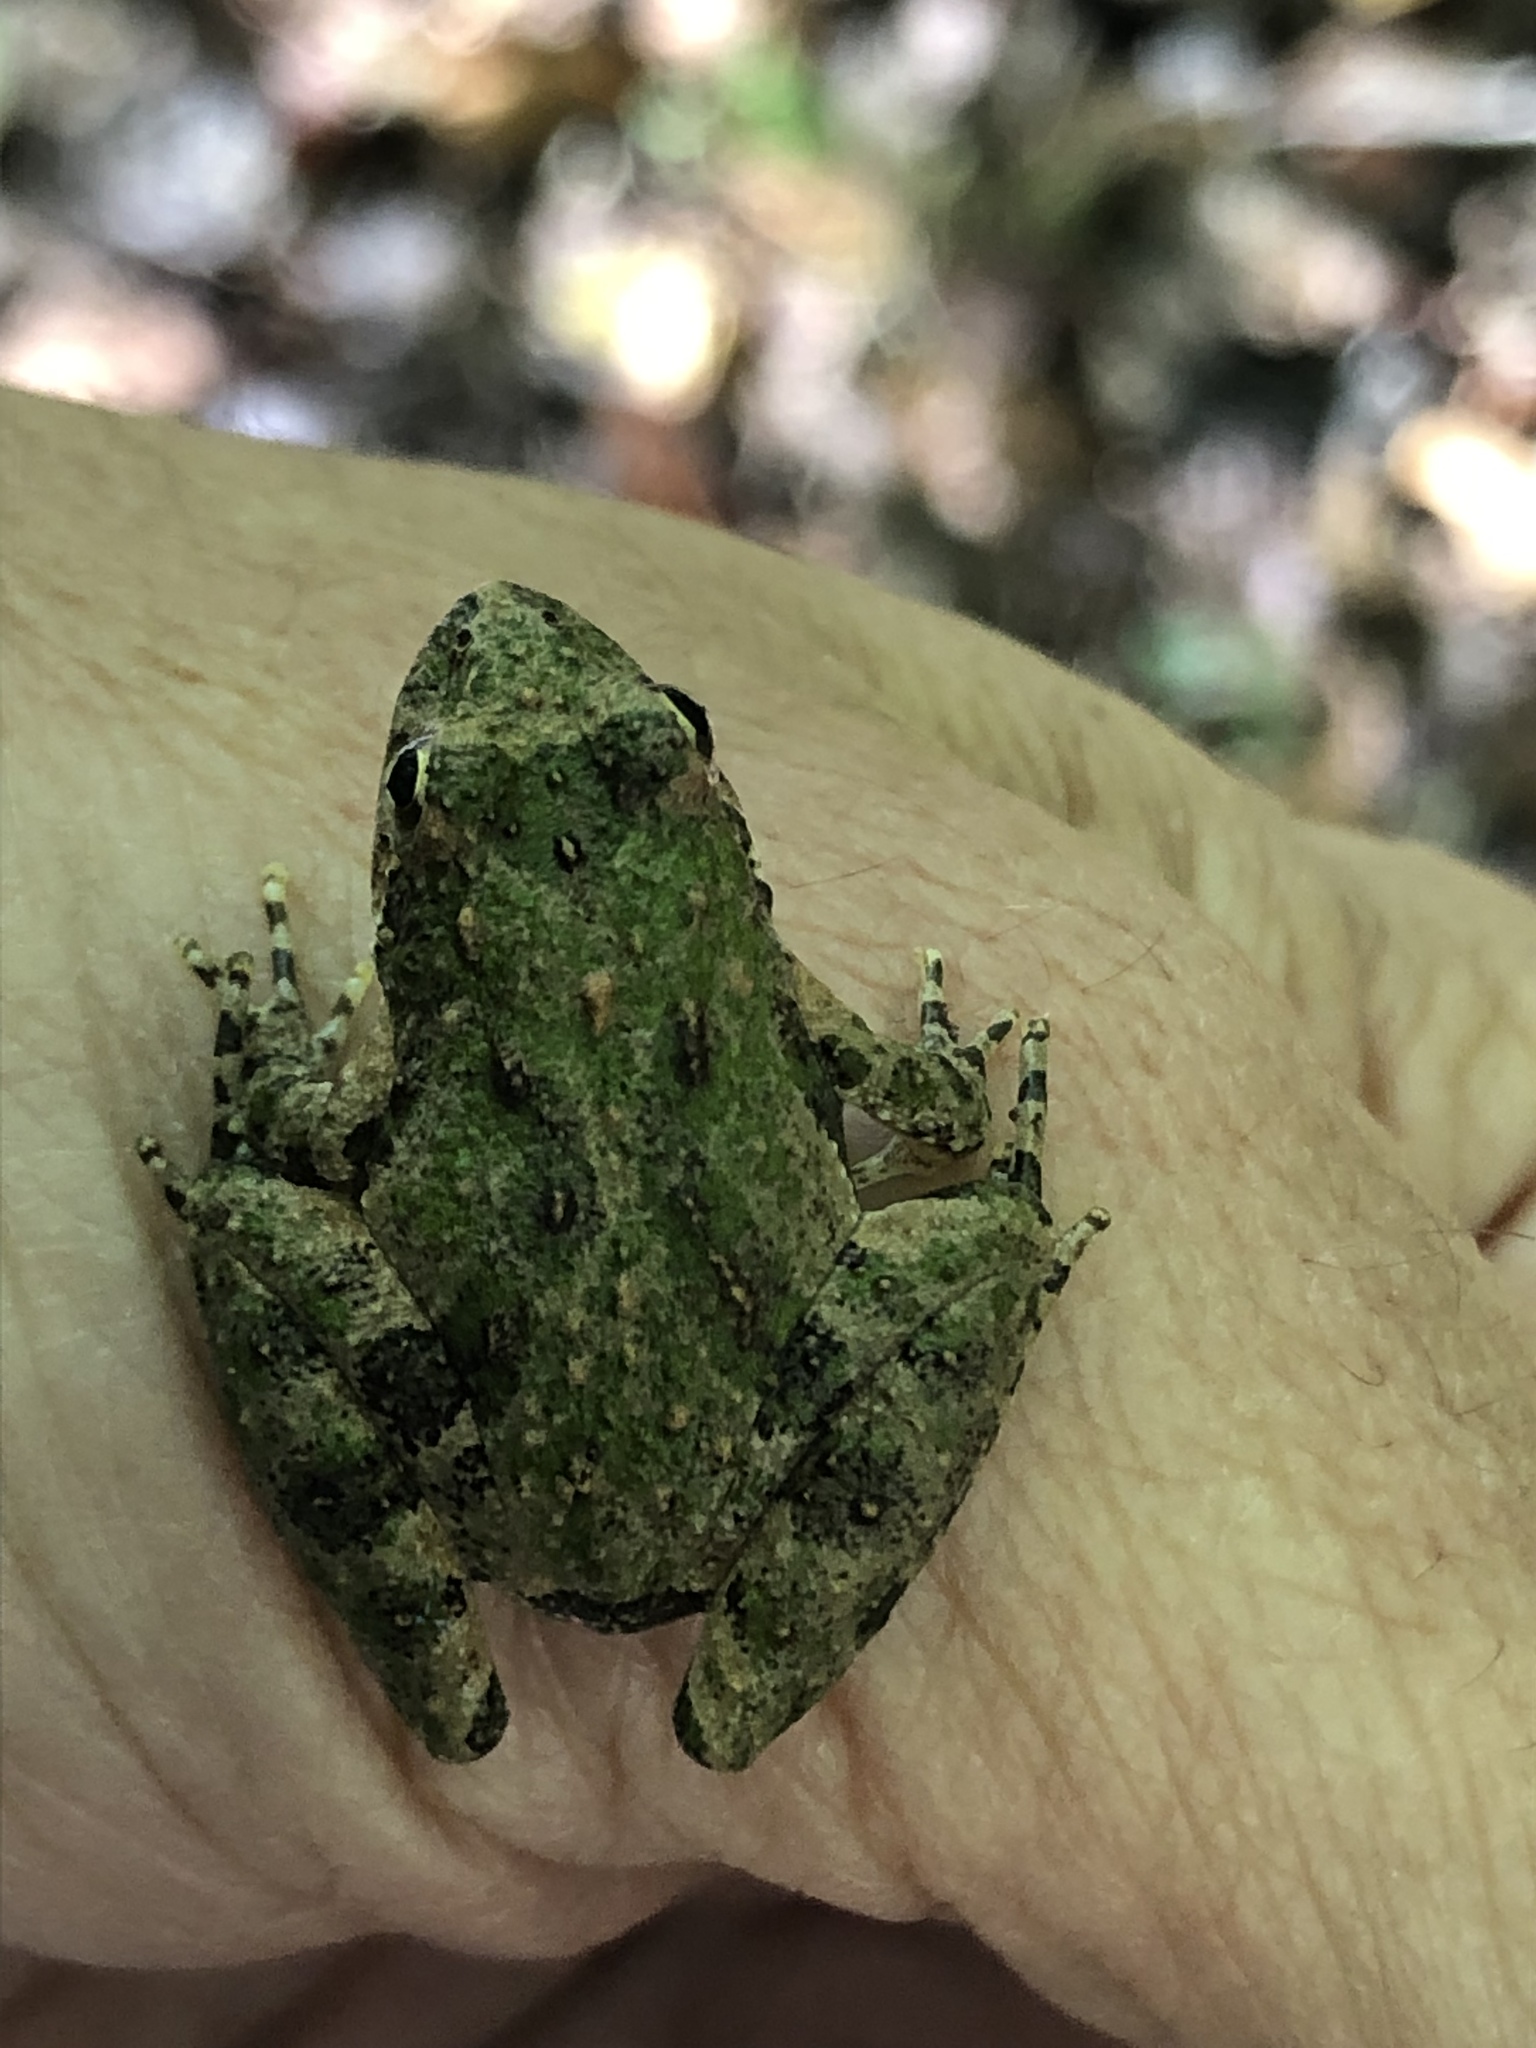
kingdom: Animalia
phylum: Chordata
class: Amphibia
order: Anura
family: Hylidae
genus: Acris
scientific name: Acris crepitans
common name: Northern cricket frog
